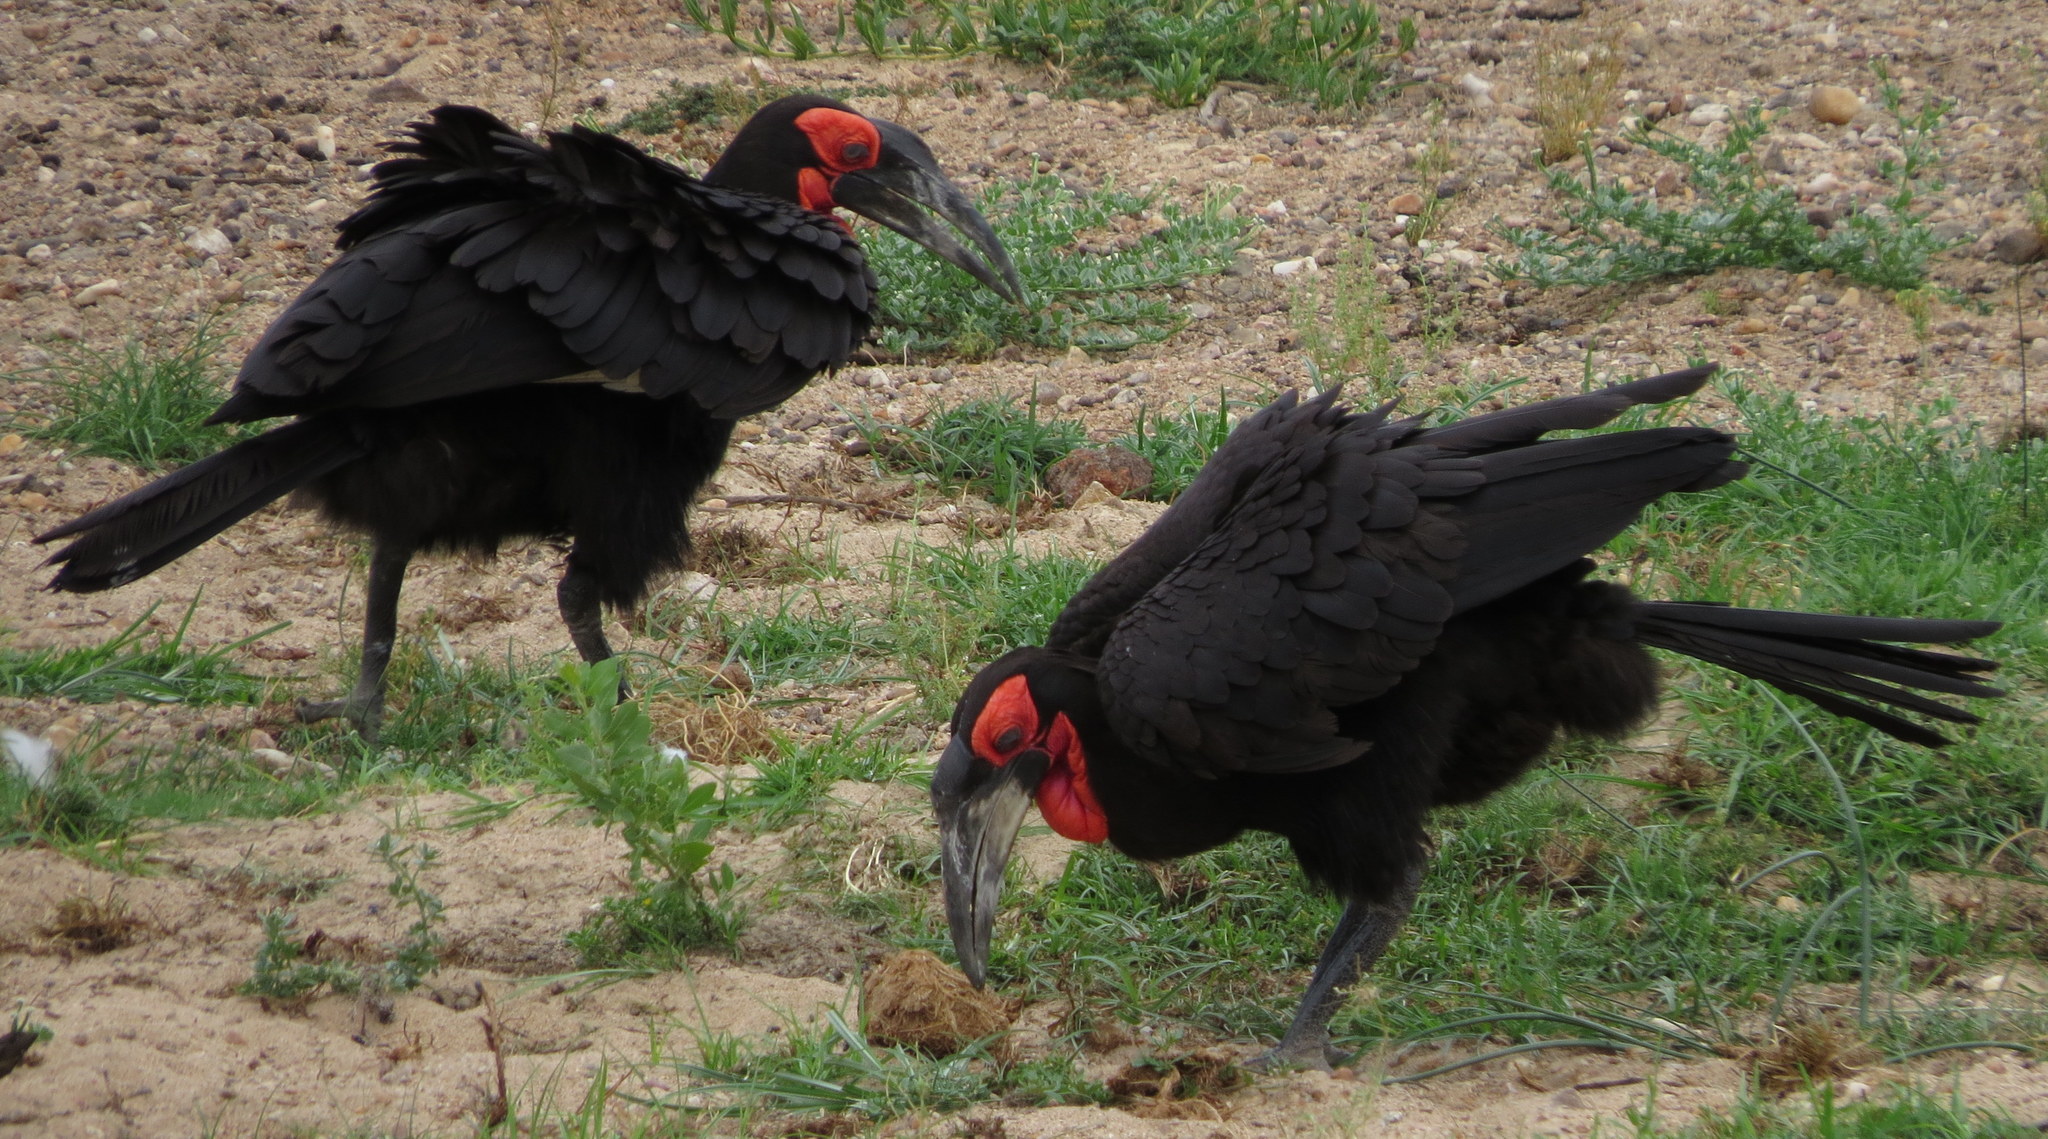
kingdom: Animalia
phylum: Chordata
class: Aves
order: Bucerotiformes
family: Bucorvidae
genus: Bucorvus
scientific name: Bucorvus leadbeateri
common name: Southern ground-hornbill
